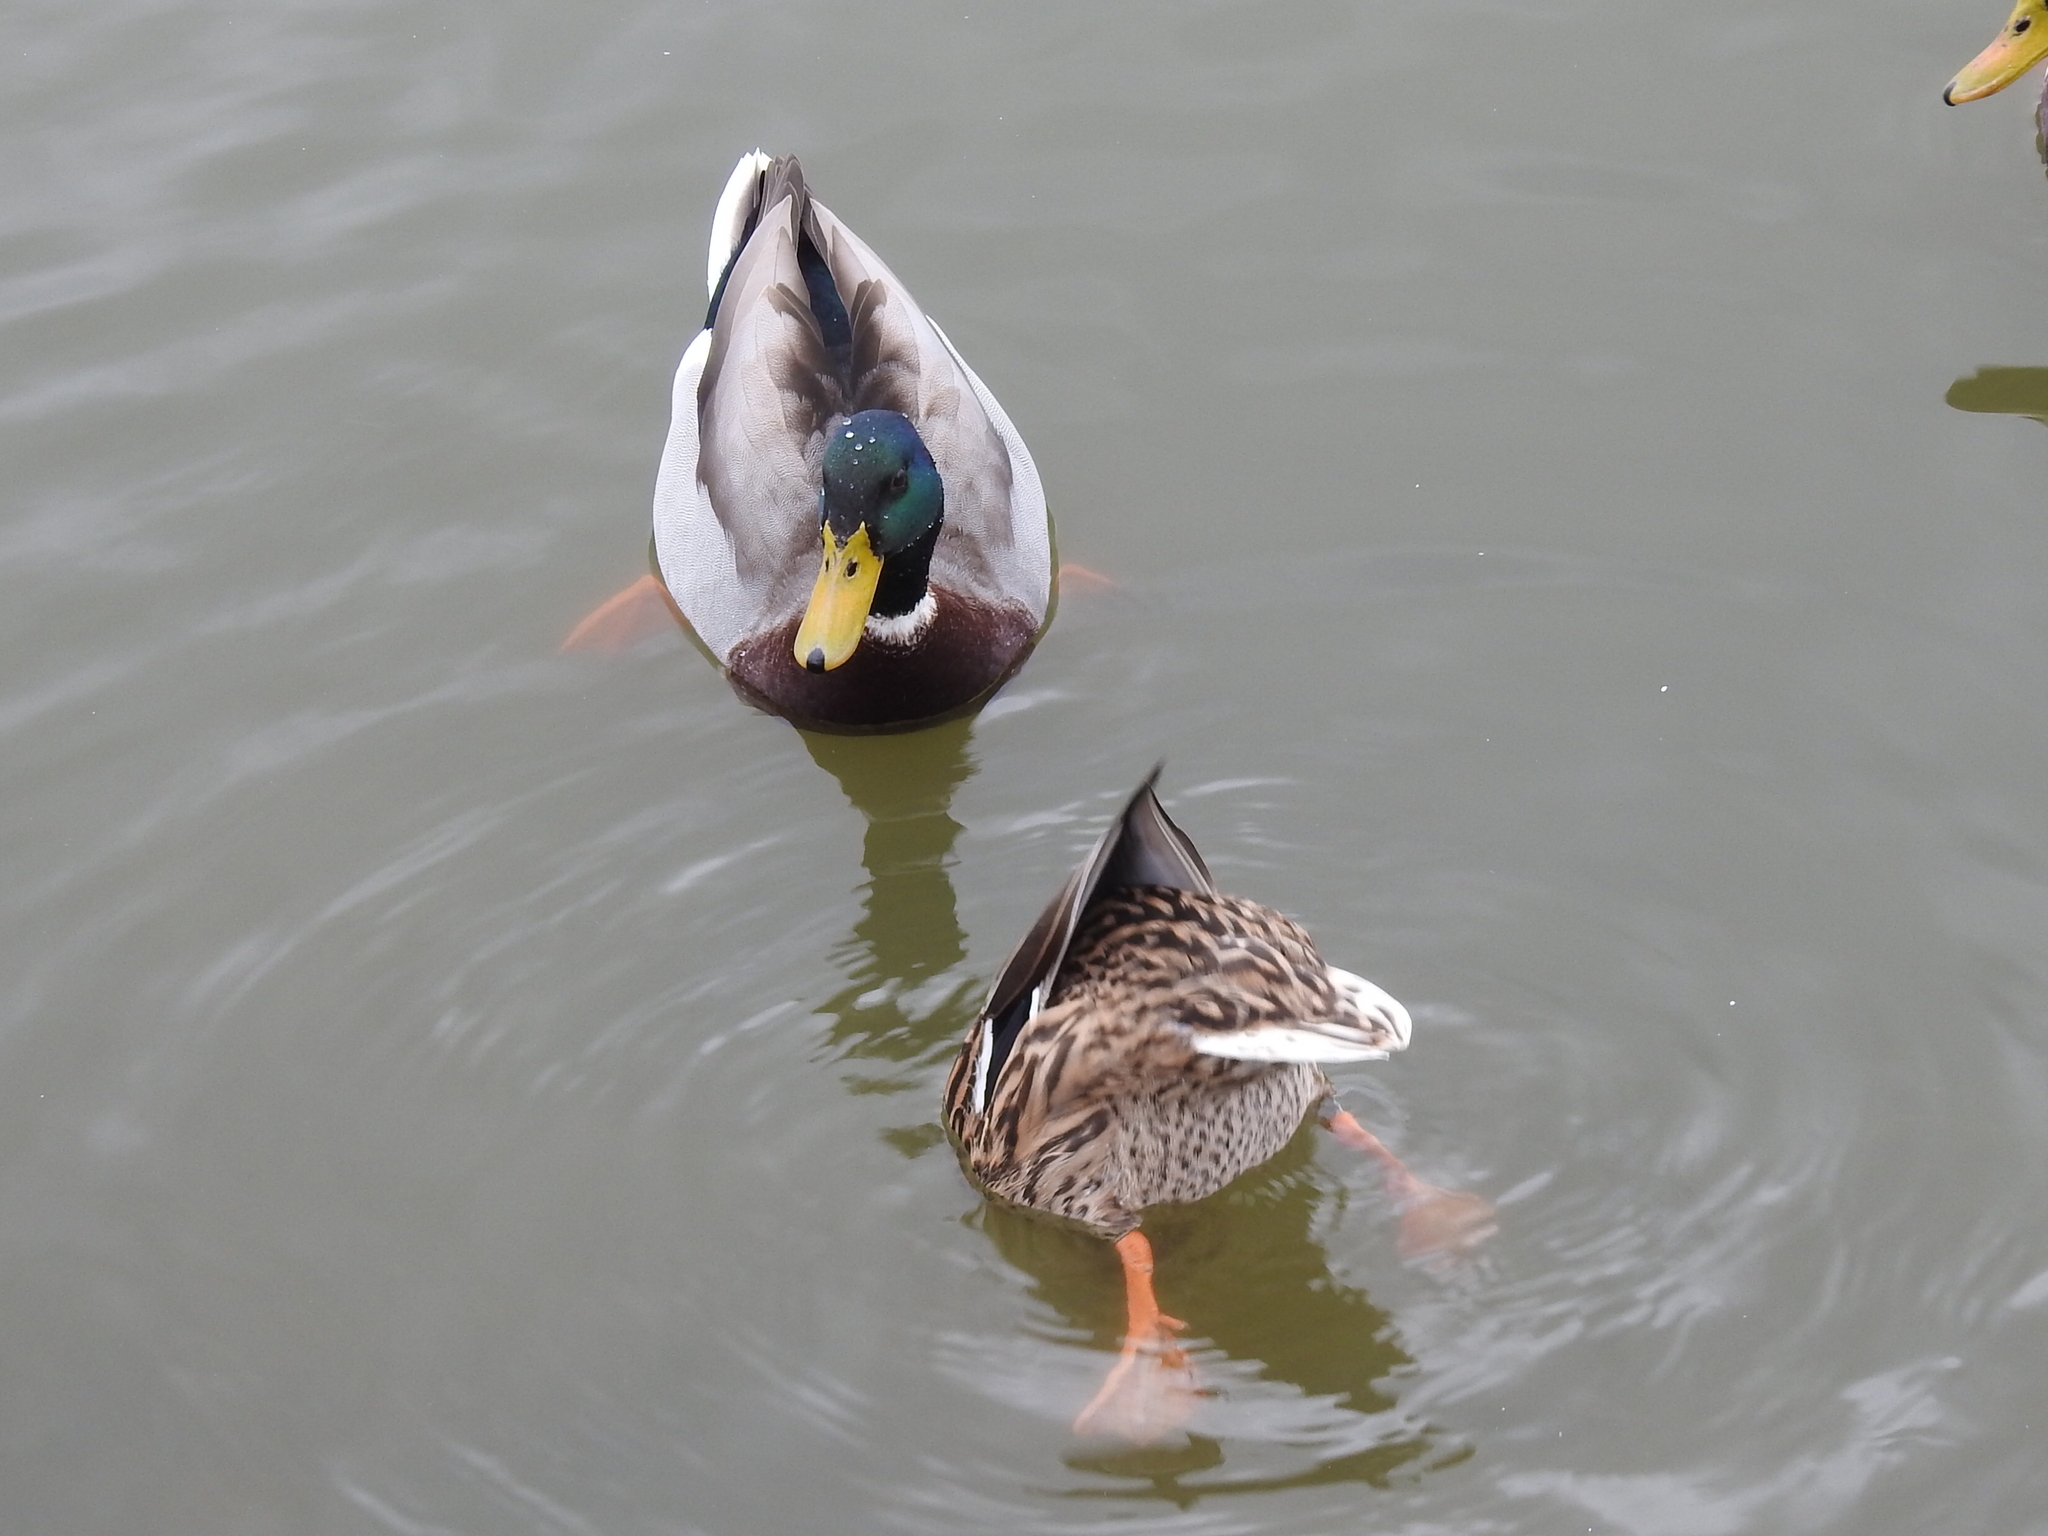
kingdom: Animalia
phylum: Chordata
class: Aves
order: Anseriformes
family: Anatidae
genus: Anas
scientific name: Anas platyrhynchos
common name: Mallard
